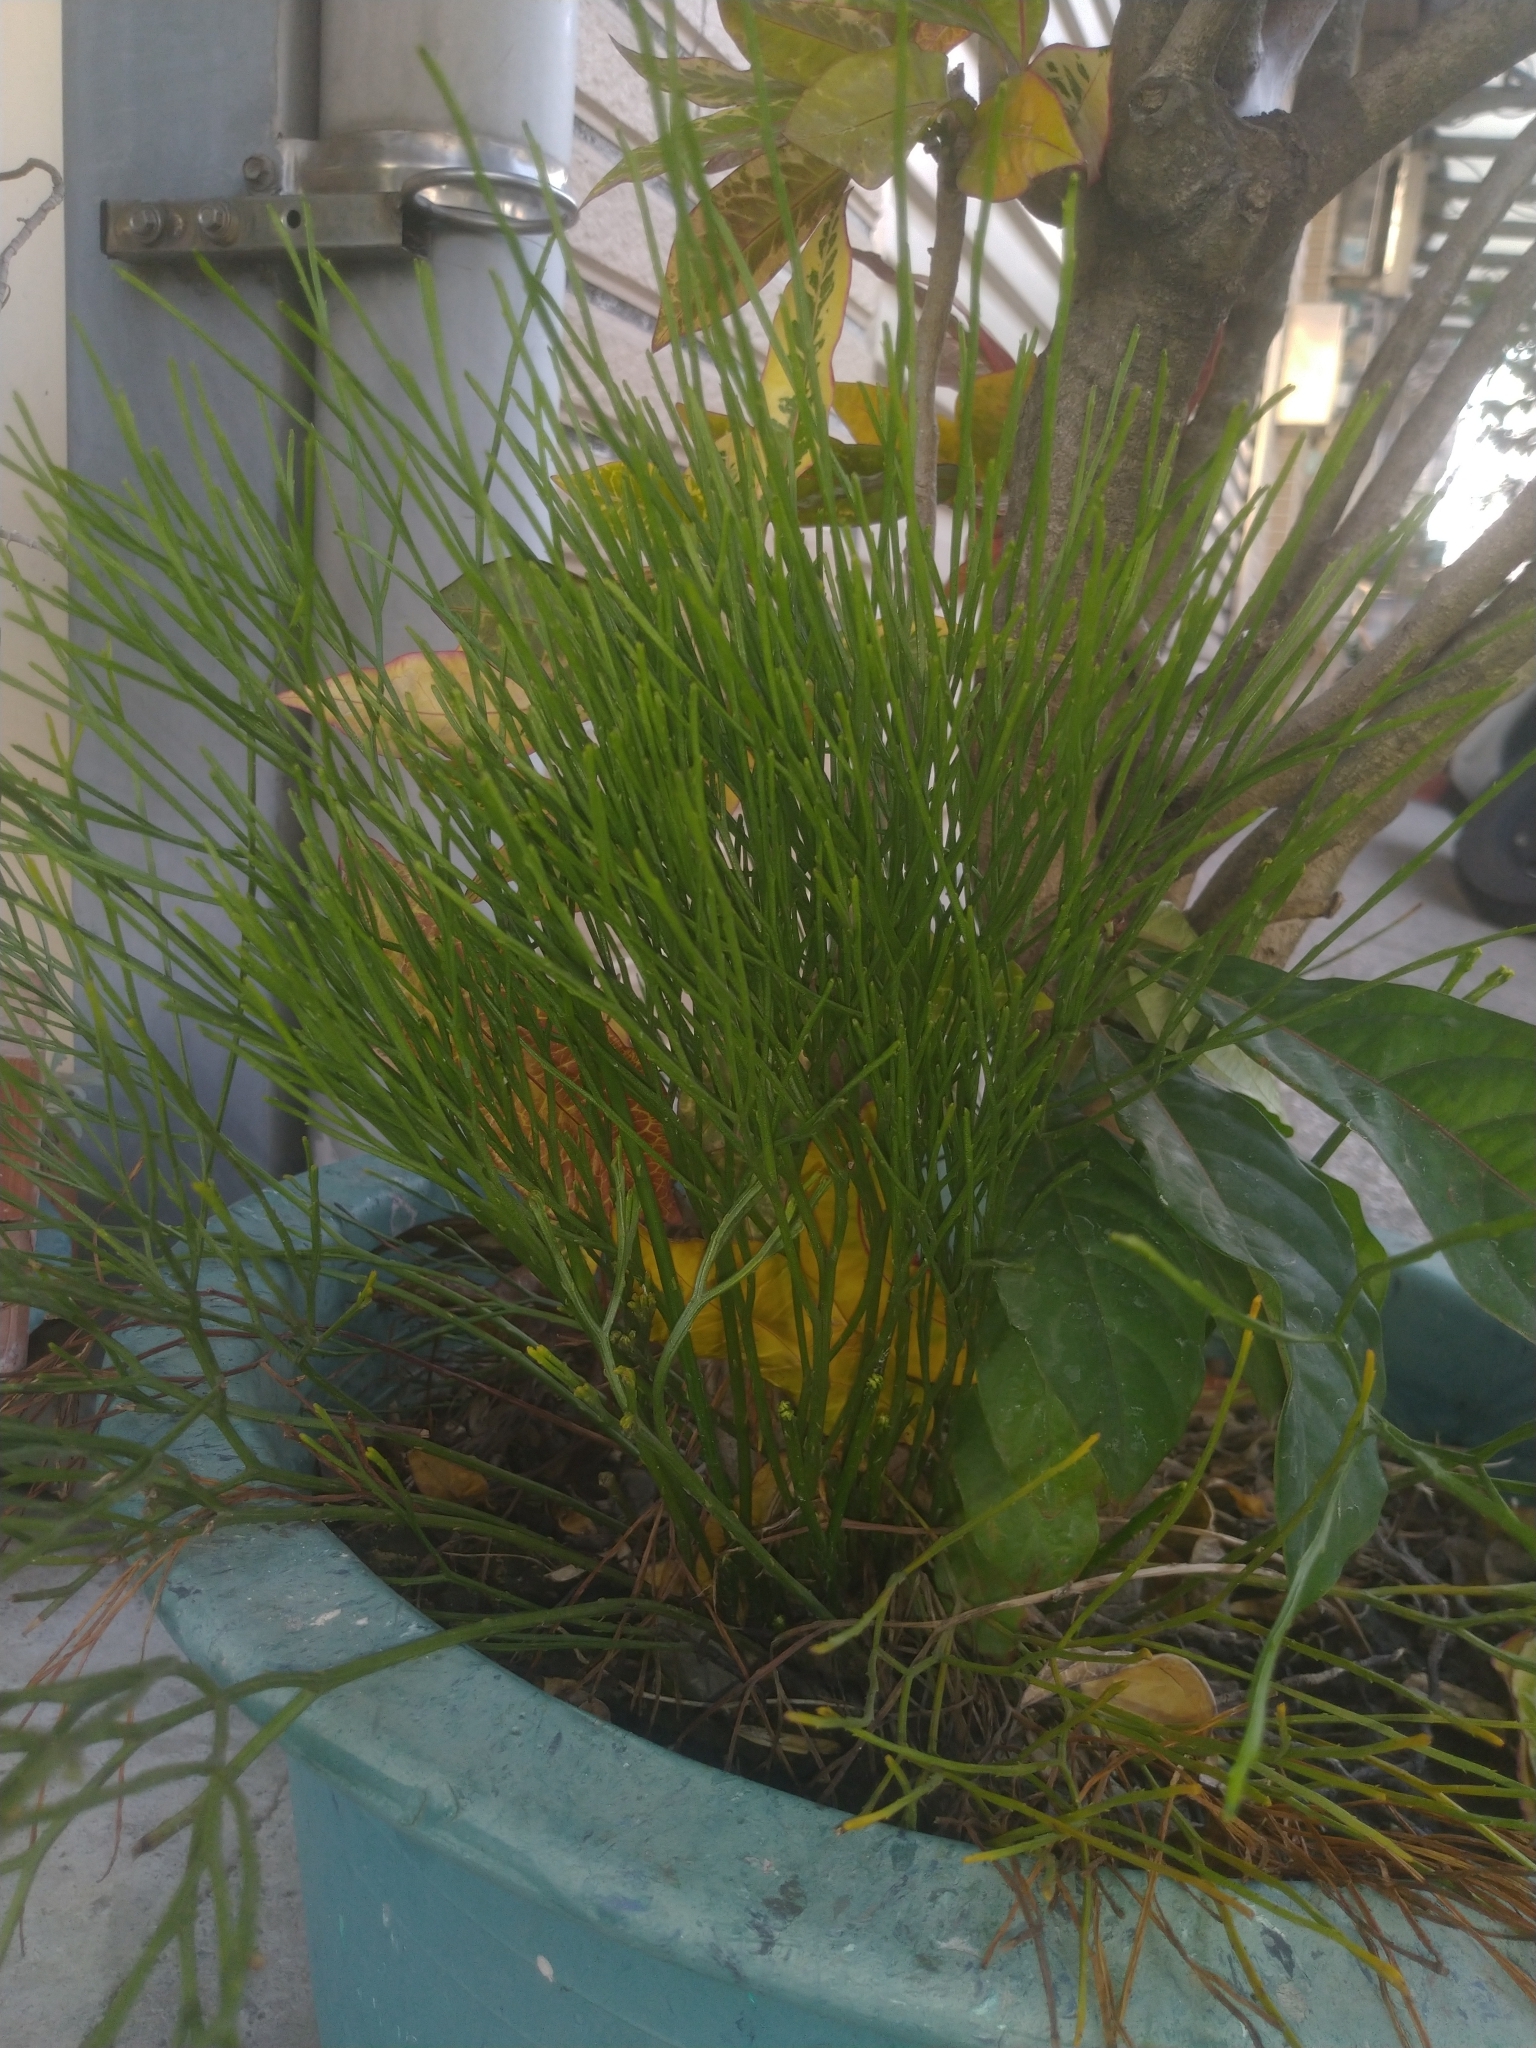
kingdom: Plantae
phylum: Tracheophyta
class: Polypodiopsida
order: Psilotales
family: Psilotaceae
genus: Psilotum
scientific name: Psilotum nudum
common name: Skeleton fork fern
